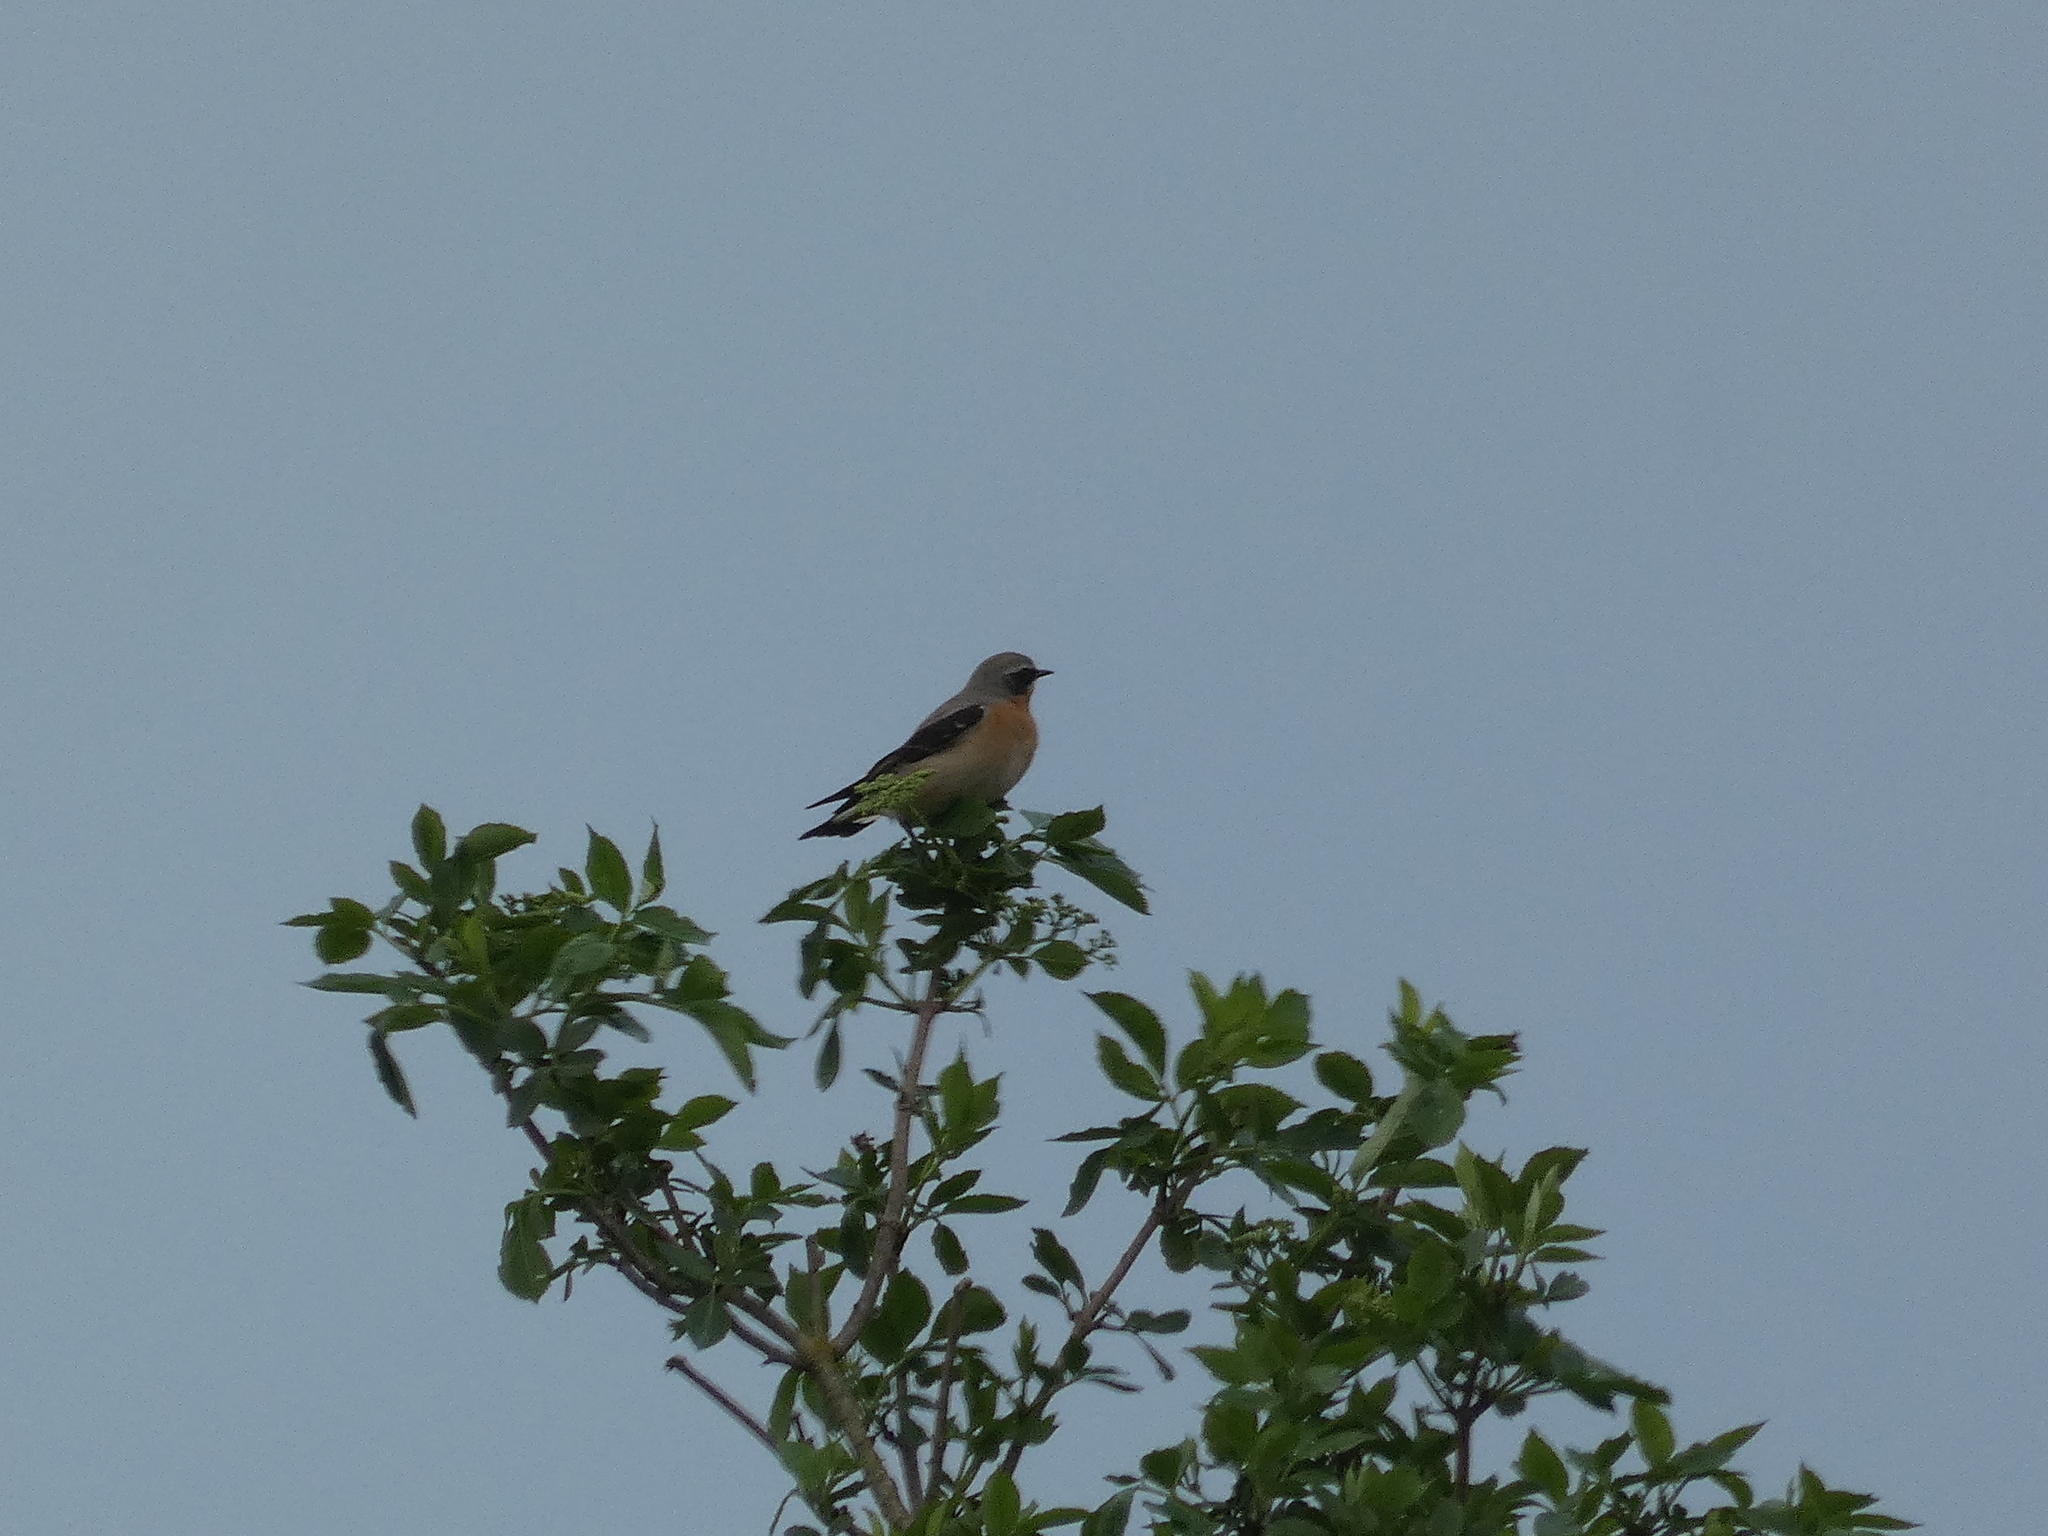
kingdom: Animalia
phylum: Chordata
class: Aves
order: Passeriformes
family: Muscicapidae
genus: Oenanthe
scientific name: Oenanthe oenanthe
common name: Northern wheatear
